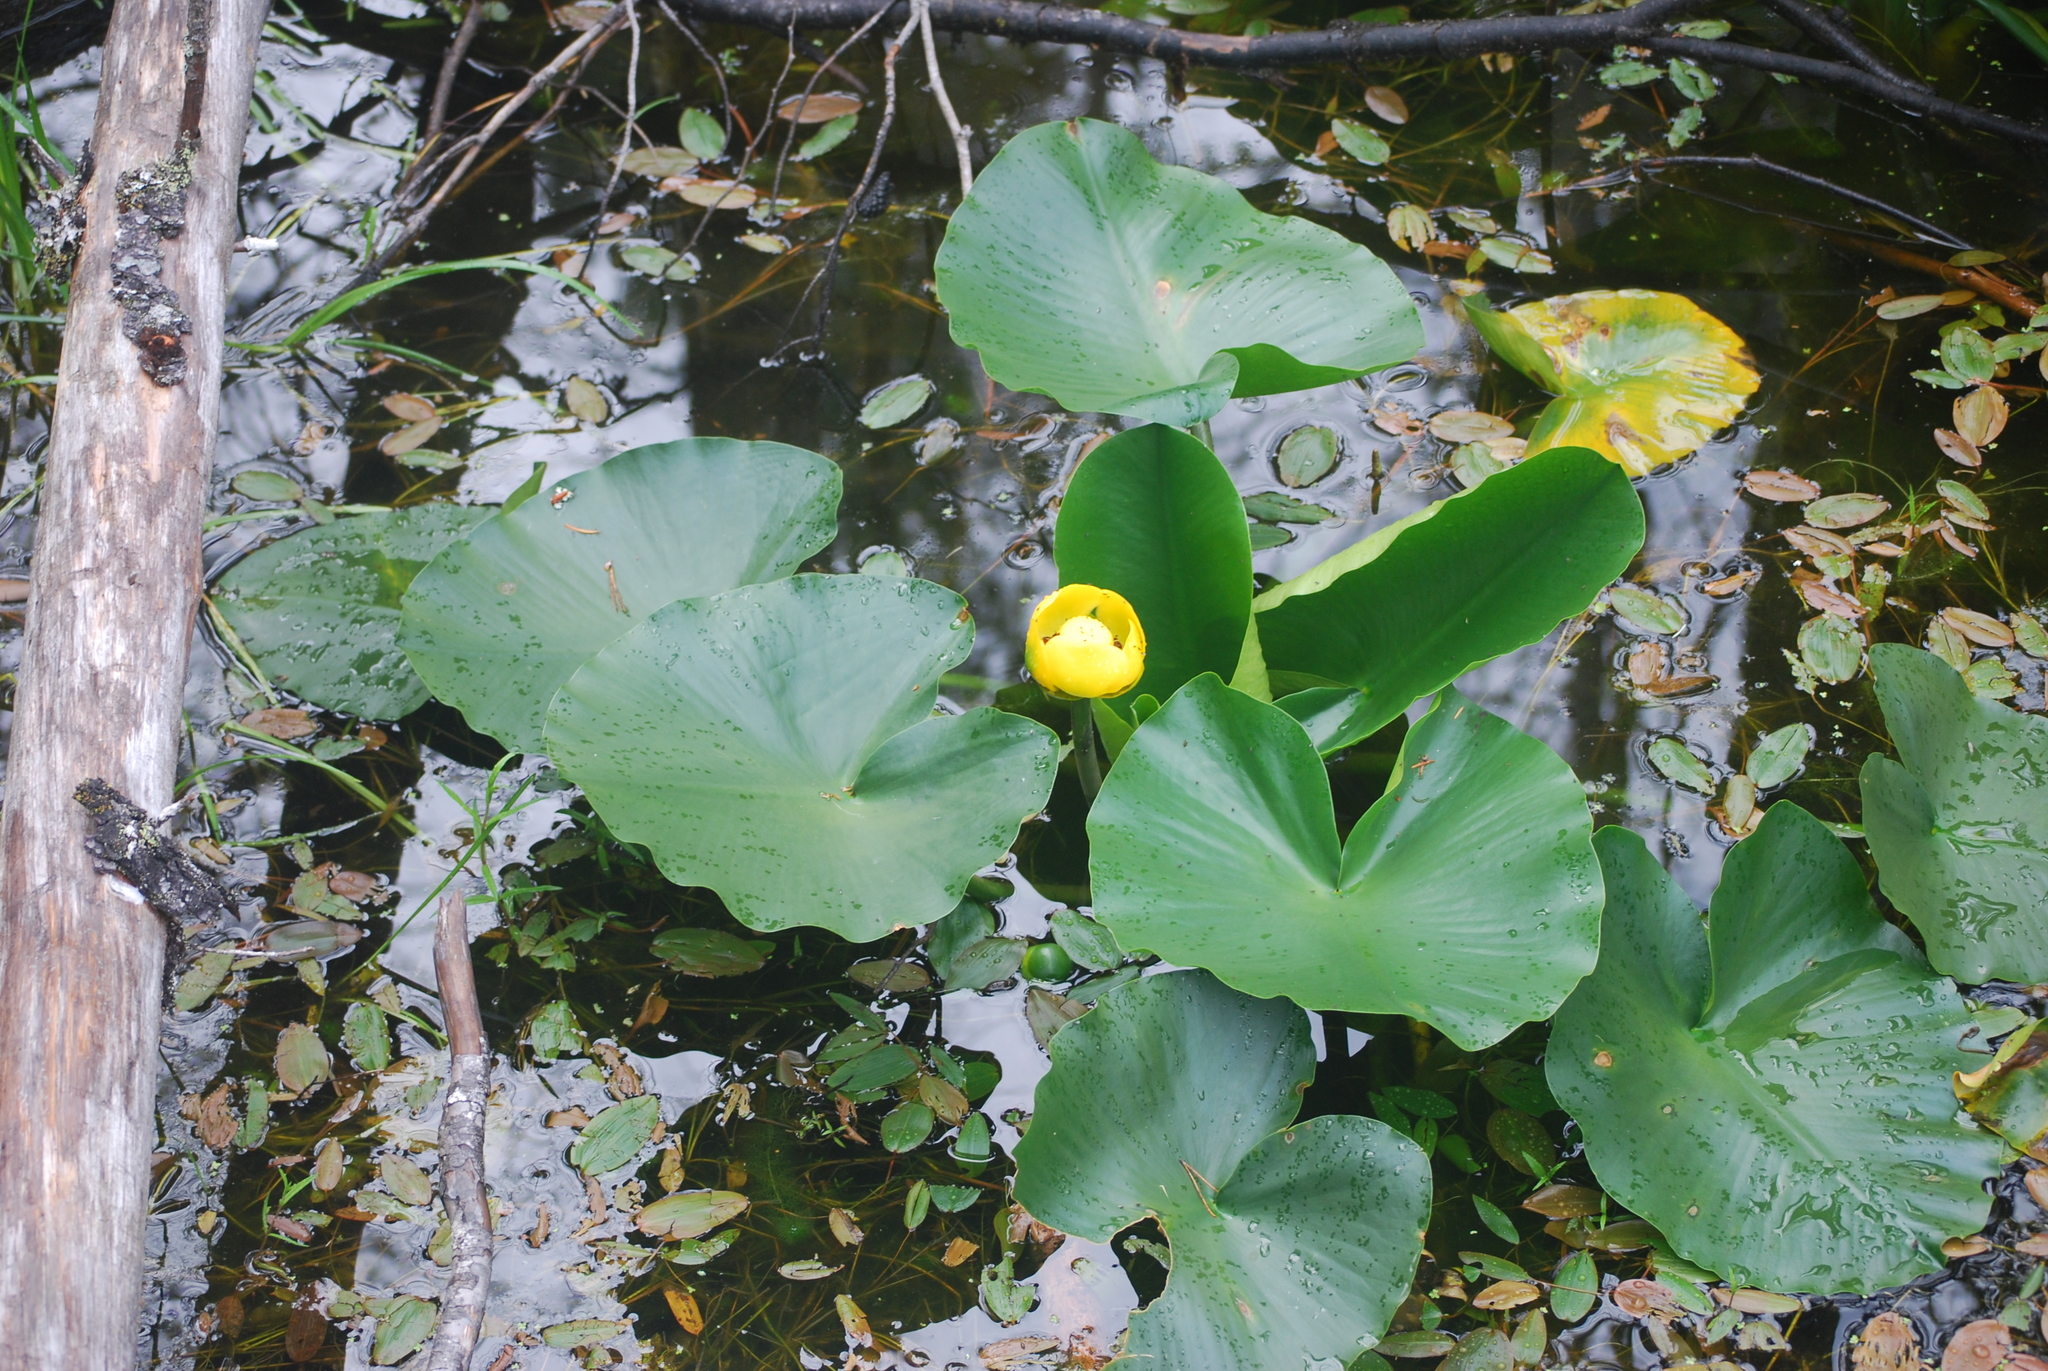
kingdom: Plantae
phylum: Tracheophyta
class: Magnoliopsida
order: Nymphaeales
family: Nymphaeaceae
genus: Nuphar
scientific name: Nuphar polysepala
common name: Rocky mountain cow-lily
